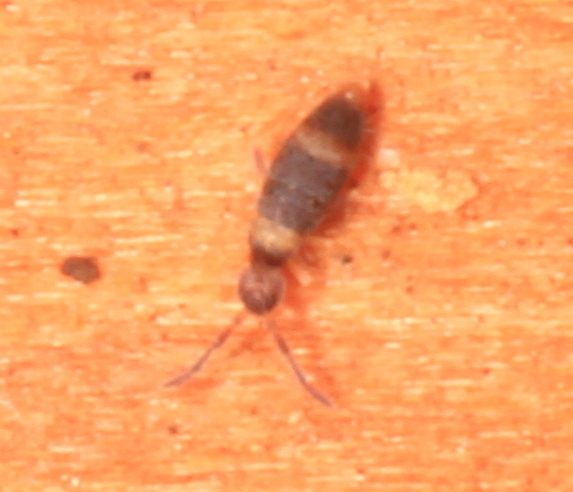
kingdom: Animalia
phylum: Arthropoda
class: Collembola
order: Entomobryomorpha
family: Entomobryidae
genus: Entomobrya
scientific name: Entomobrya albocincta
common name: Springtail
